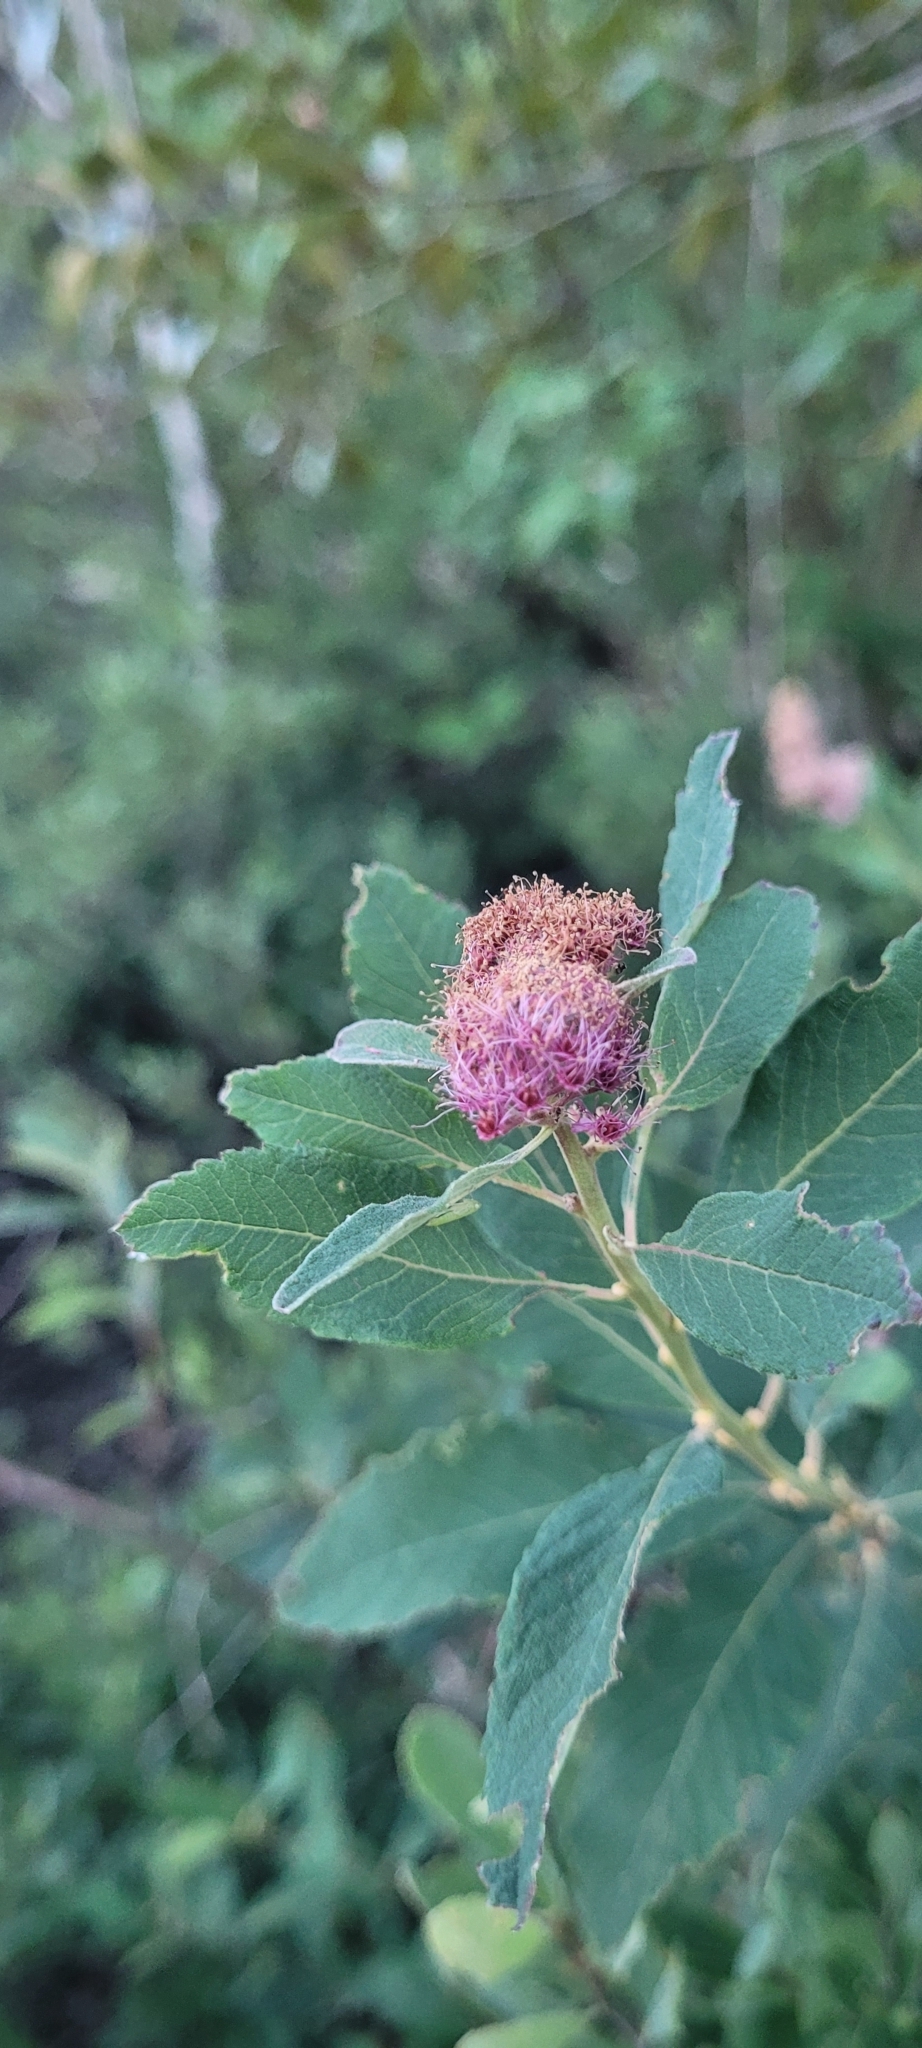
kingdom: Plantae
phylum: Tracheophyta
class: Magnoliopsida
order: Rosales
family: Rosaceae
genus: Spiraea
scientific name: Spiraea douglasii
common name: Steeplebush
